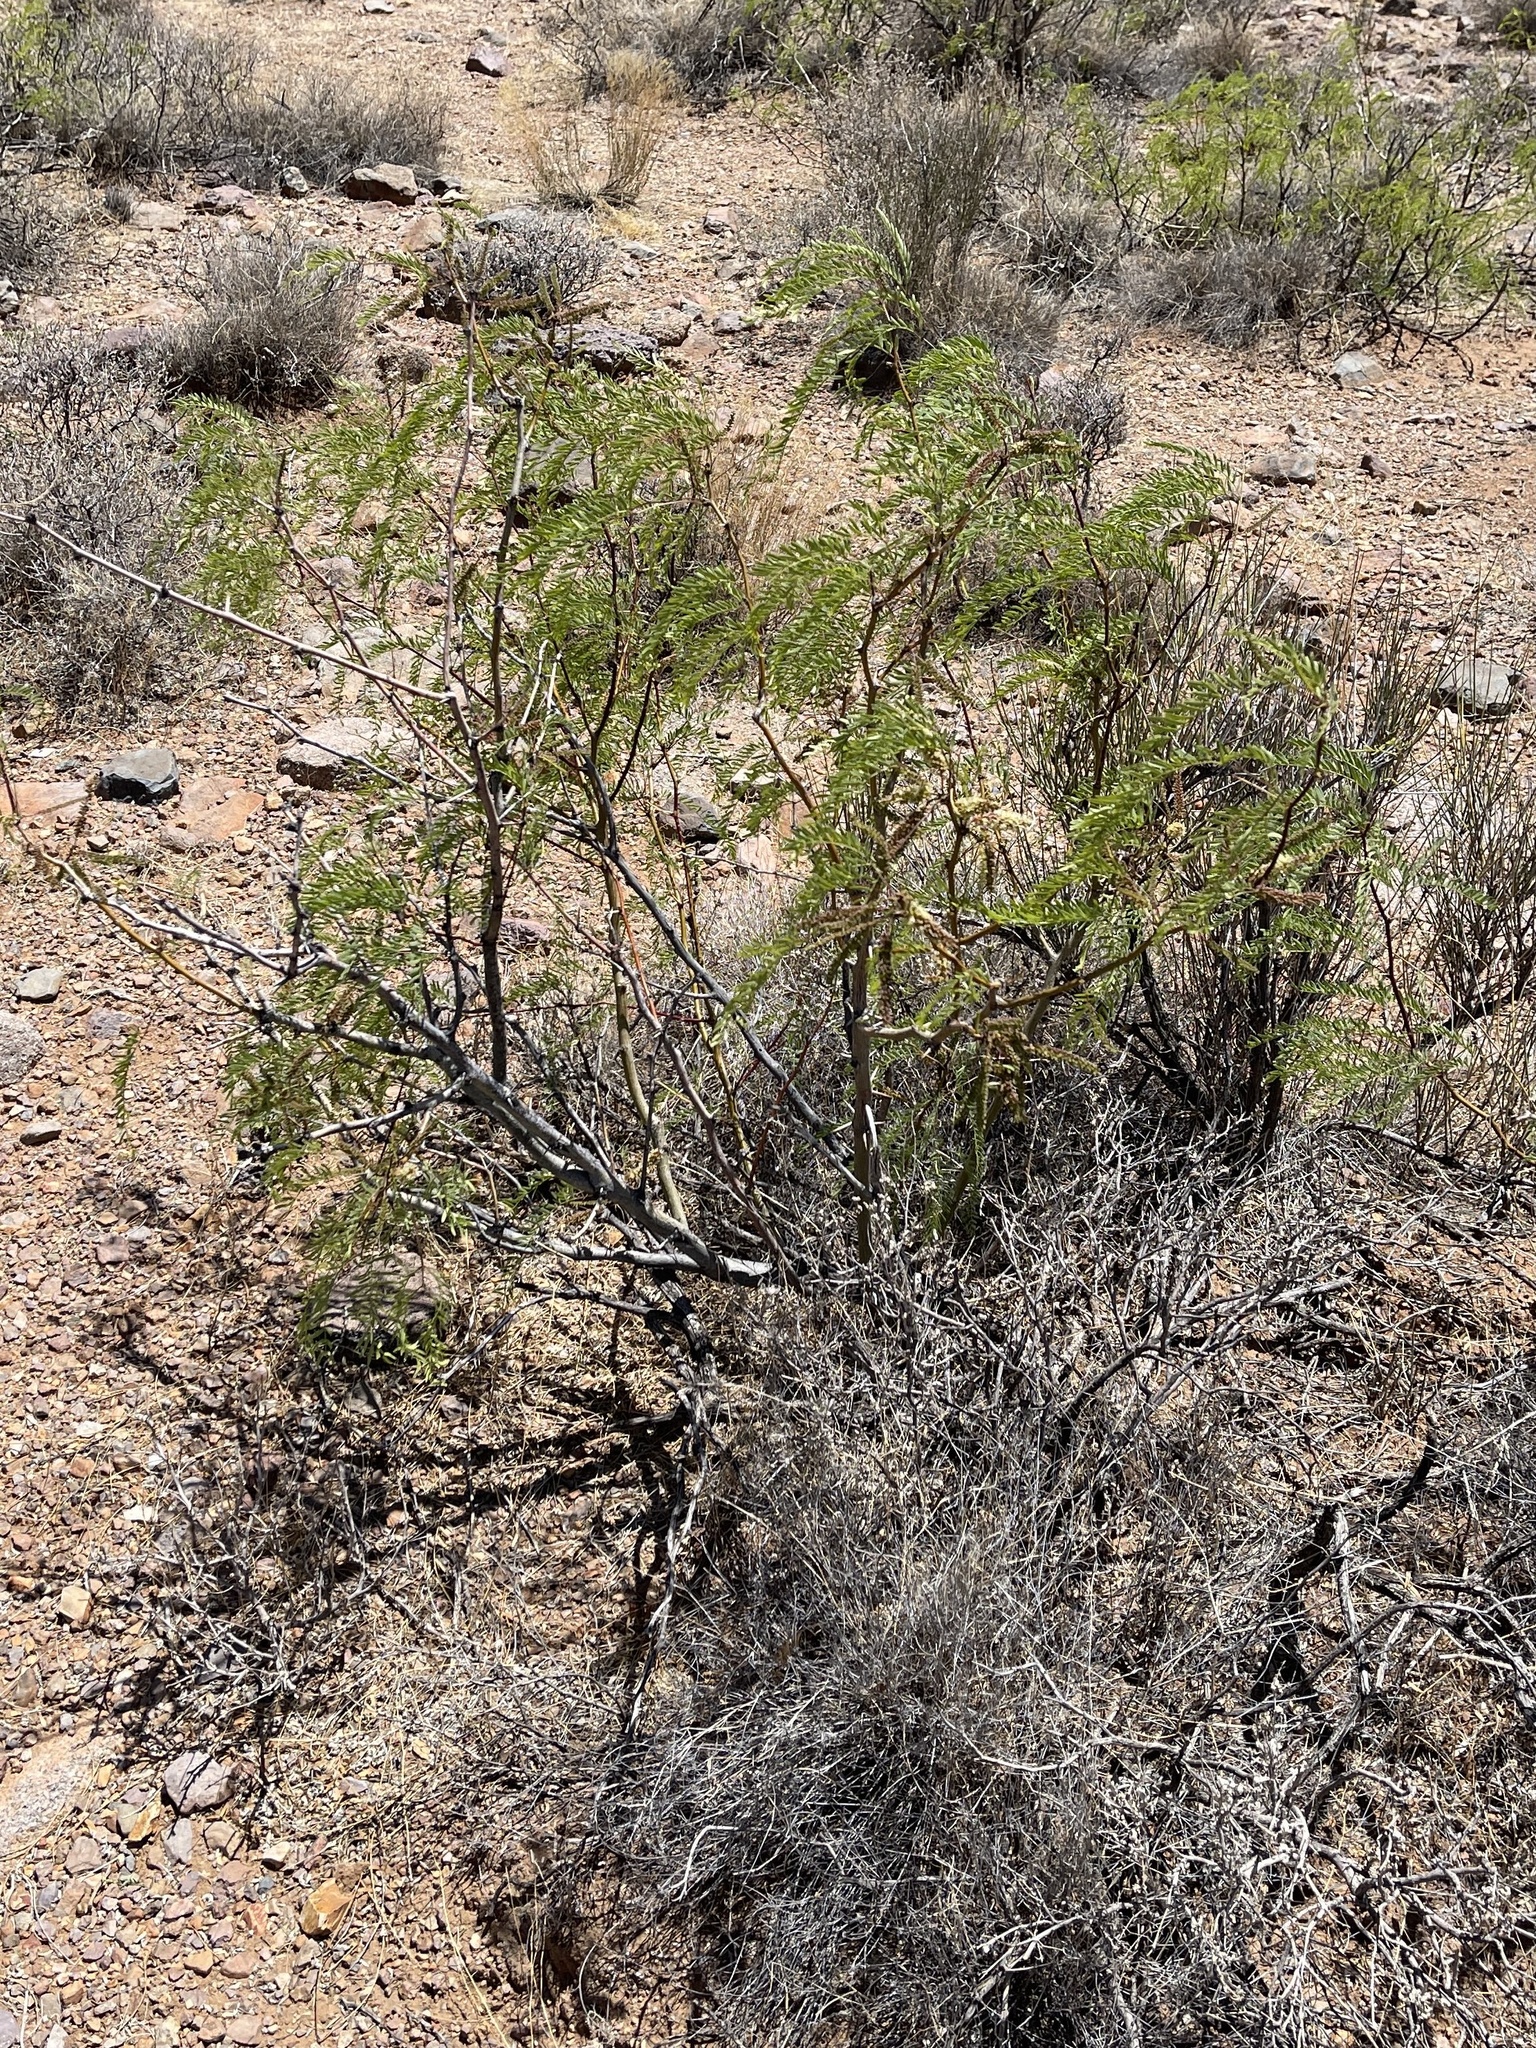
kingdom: Plantae
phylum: Tracheophyta
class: Magnoliopsida
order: Fabales
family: Fabaceae
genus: Prosopis
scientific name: Prosopis glandulosa
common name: Honey mesquite
